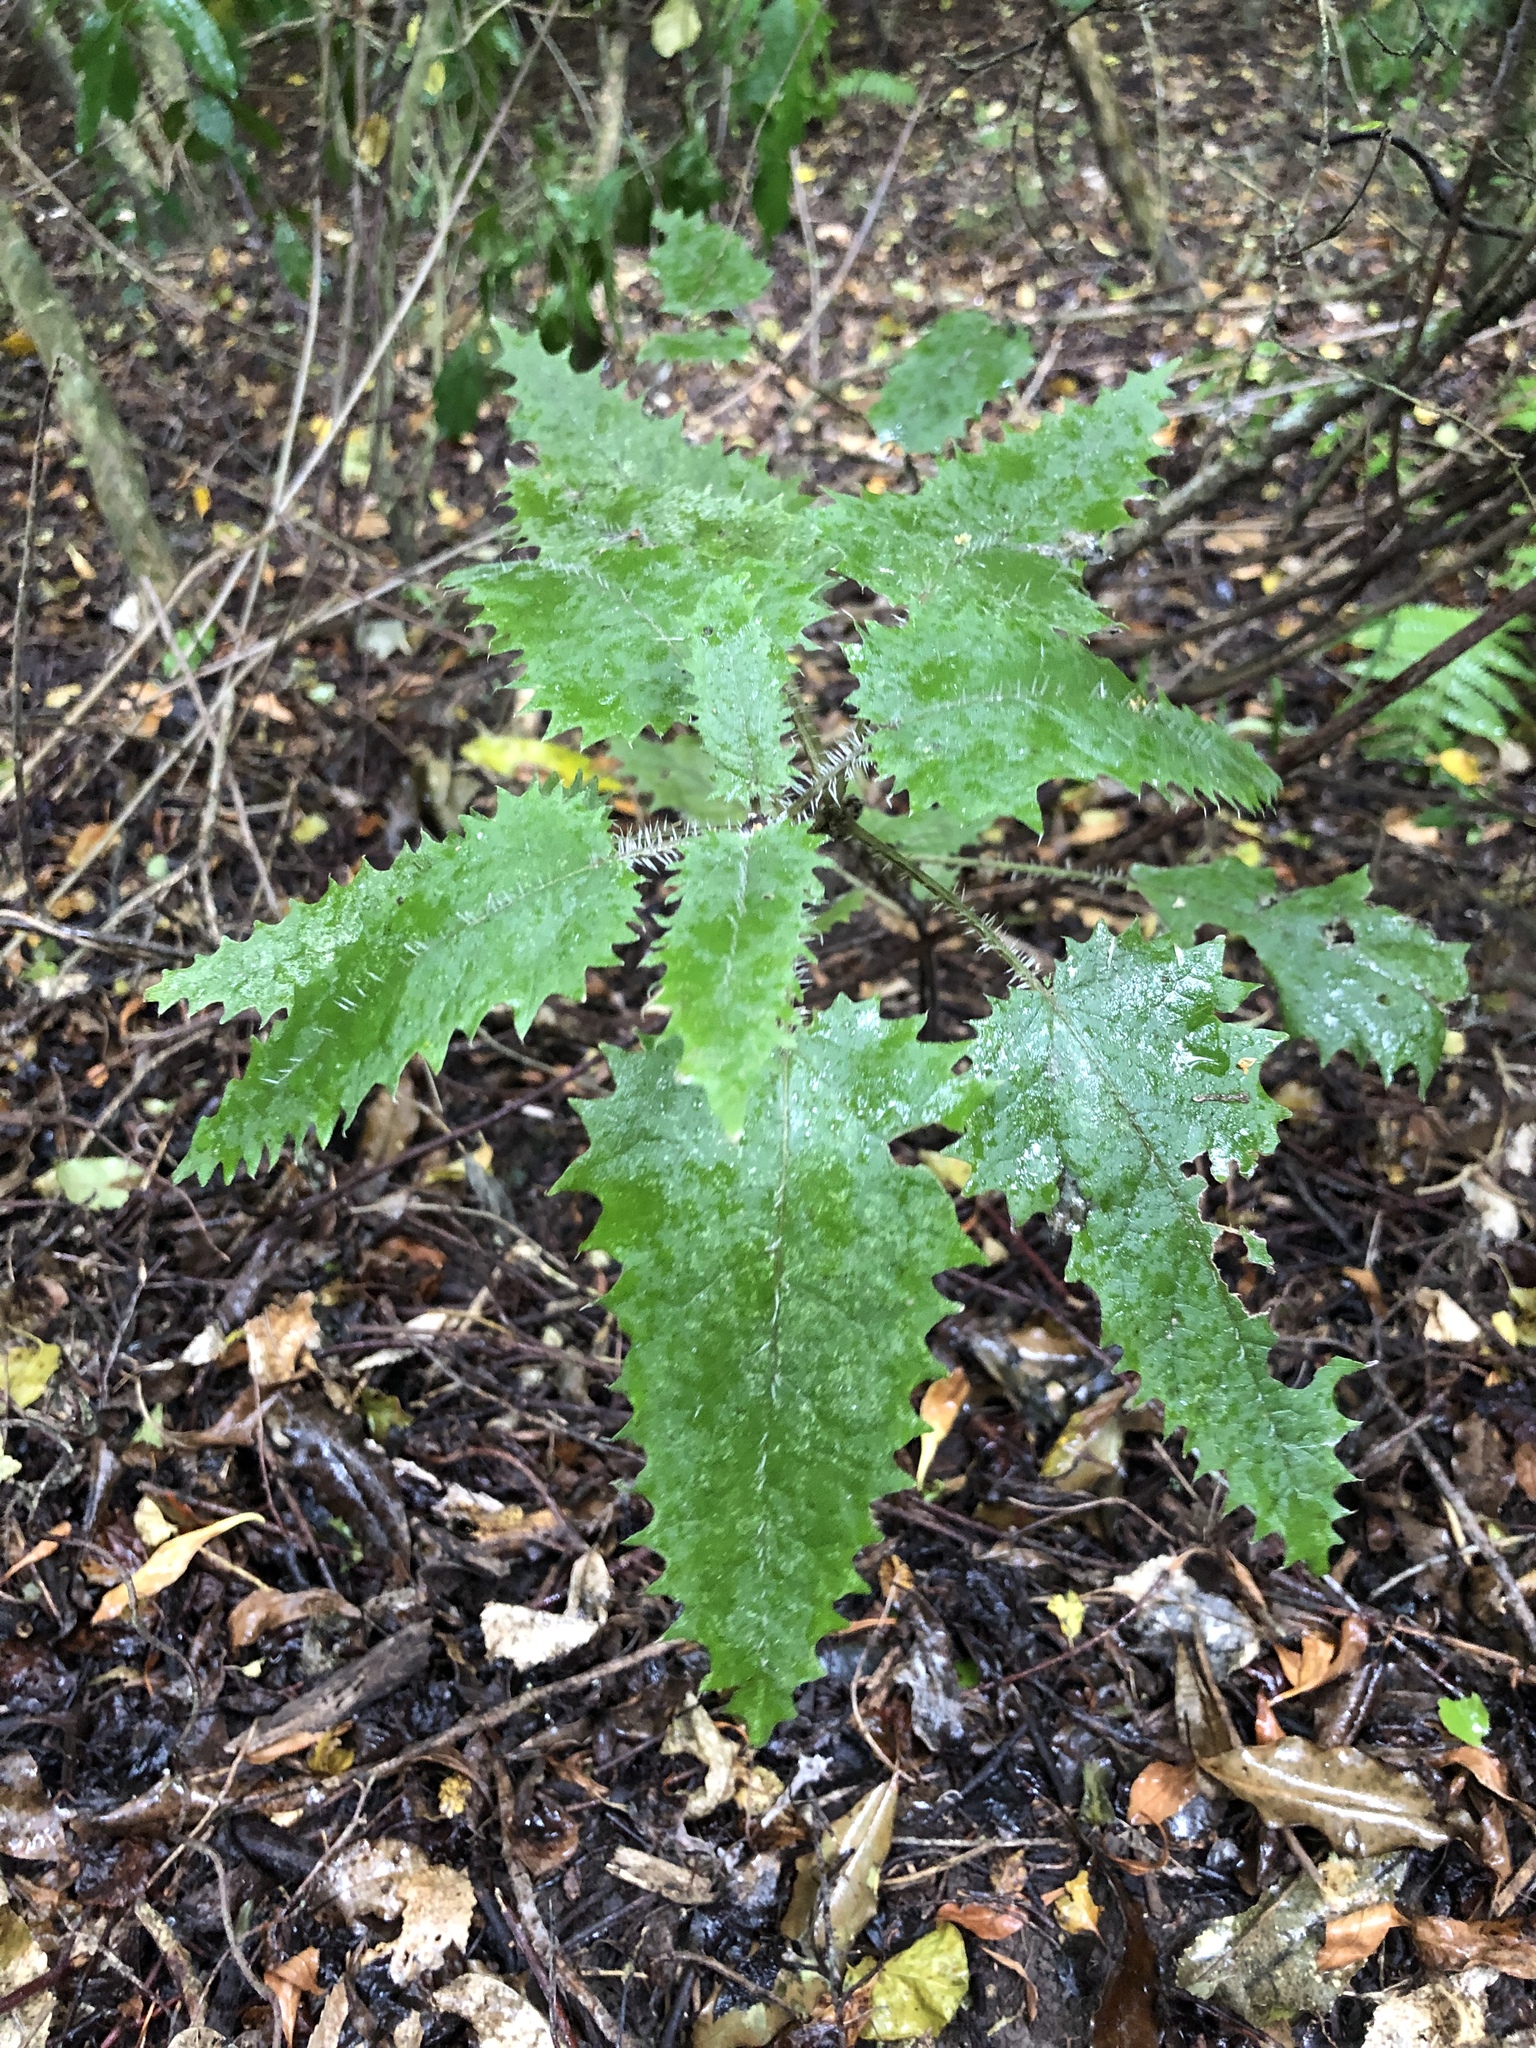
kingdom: Plantae
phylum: Tracheophyta
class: Magnoliopsida
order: Rosales
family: Urticaceae
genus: Urtica
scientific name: Urtica ferox
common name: Tree nettle
